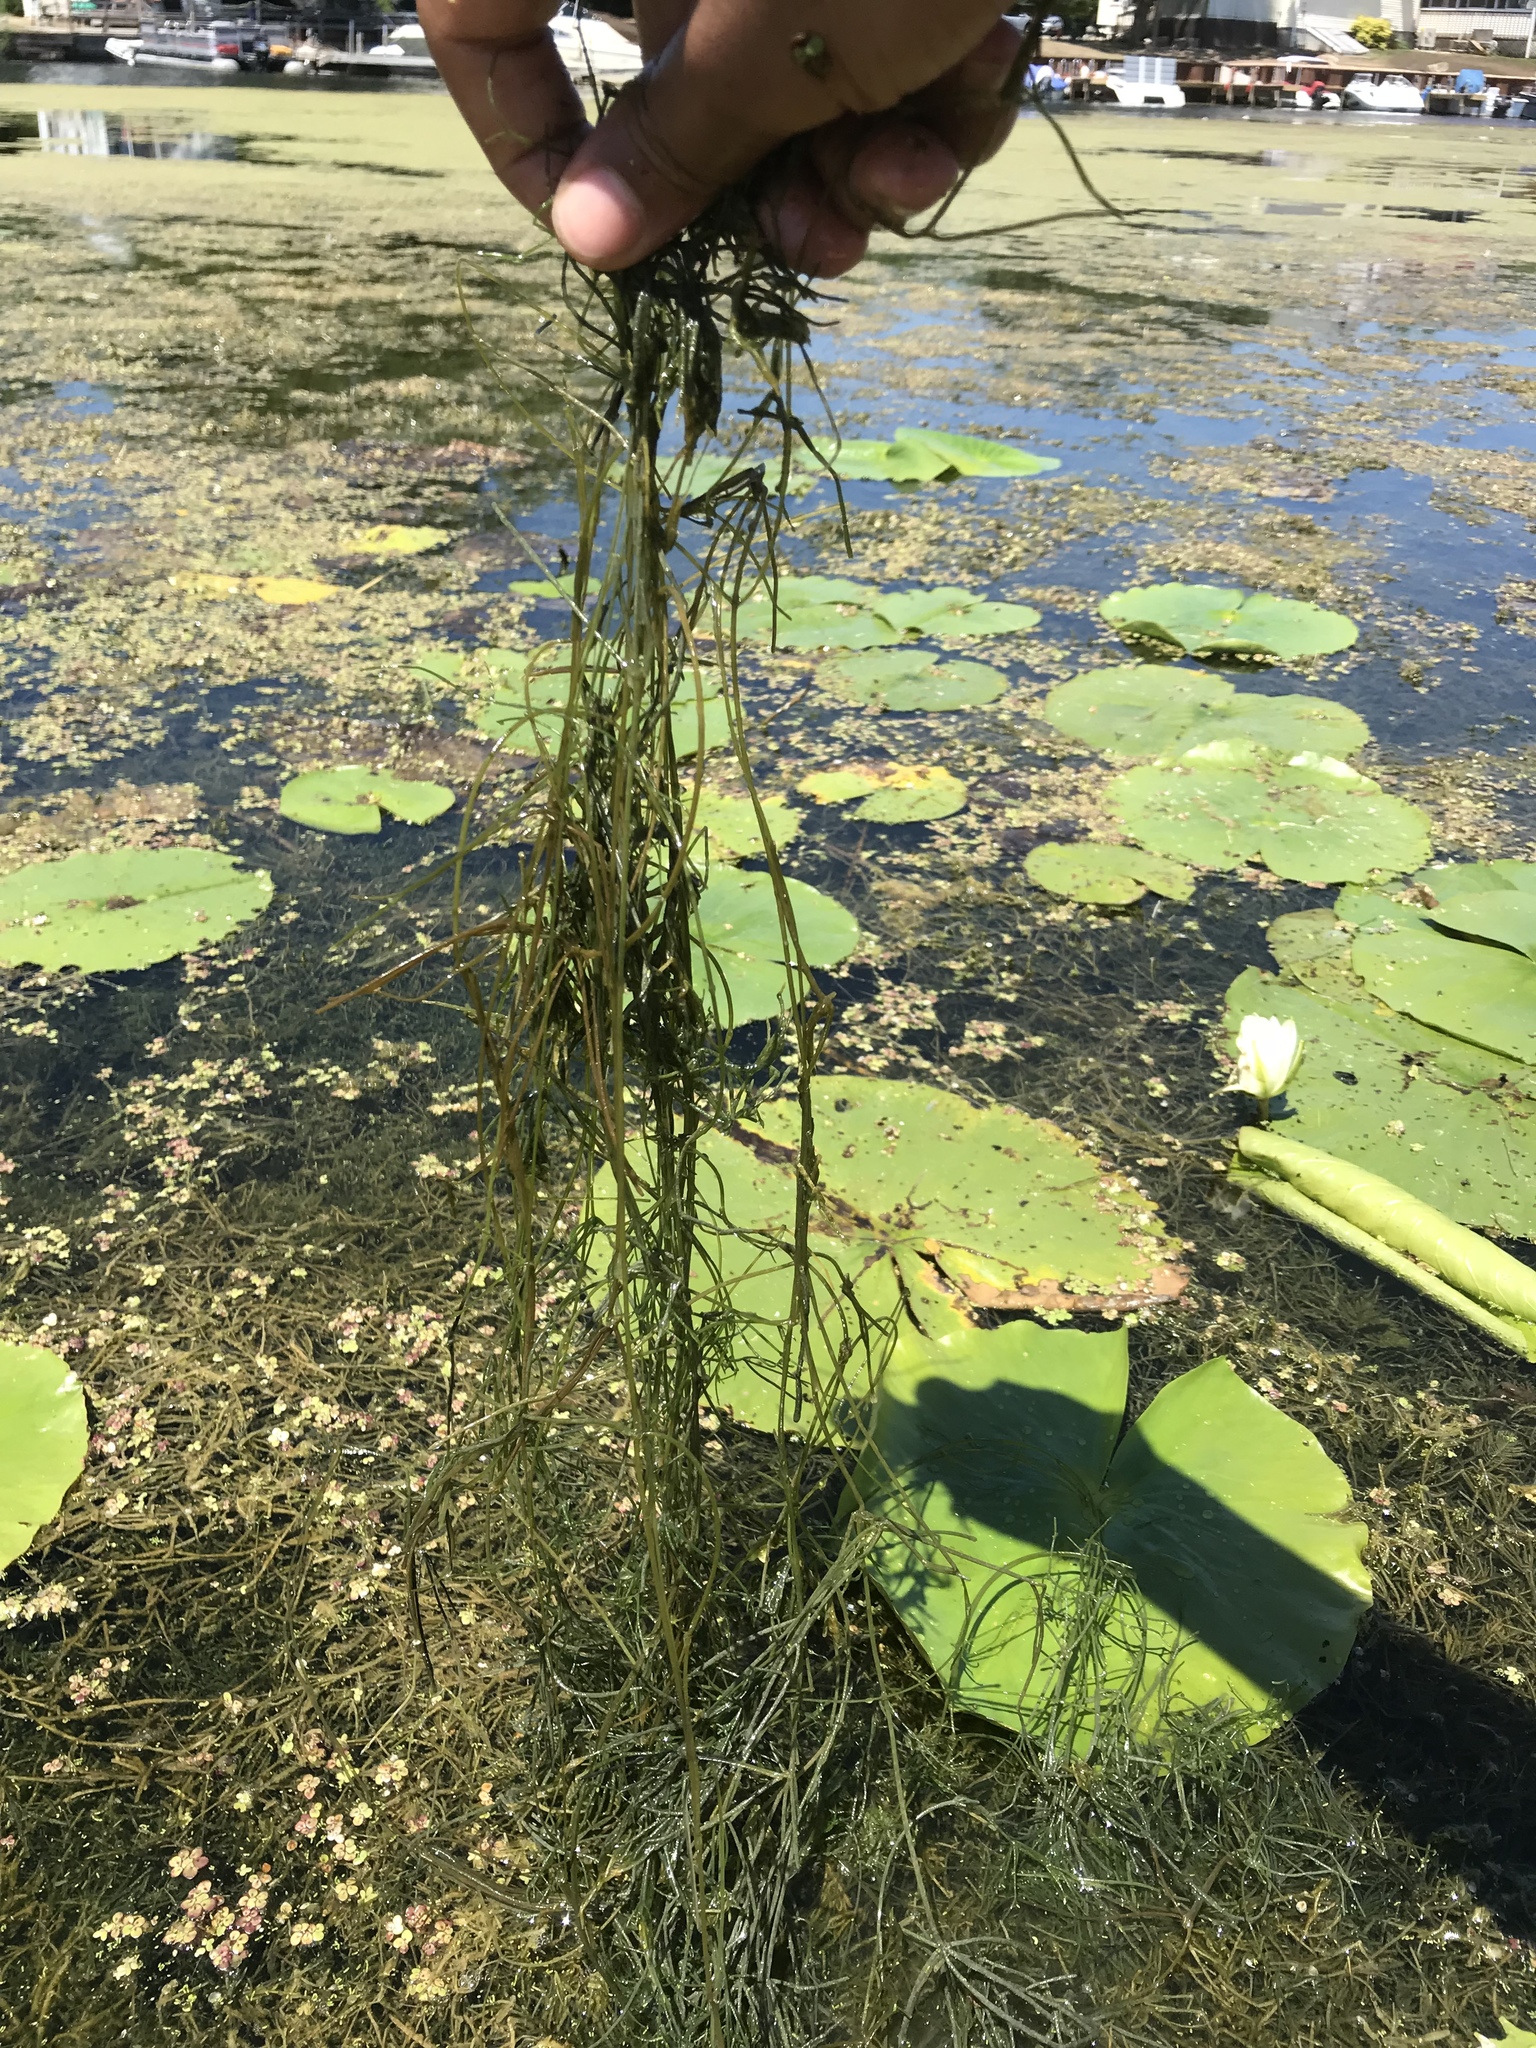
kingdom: Plantae
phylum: Charophyta
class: Charophyceae
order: Charales
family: Characeae
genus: Nitellopsis
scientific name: Nitellopsis obtusa
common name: Starry stonewort
